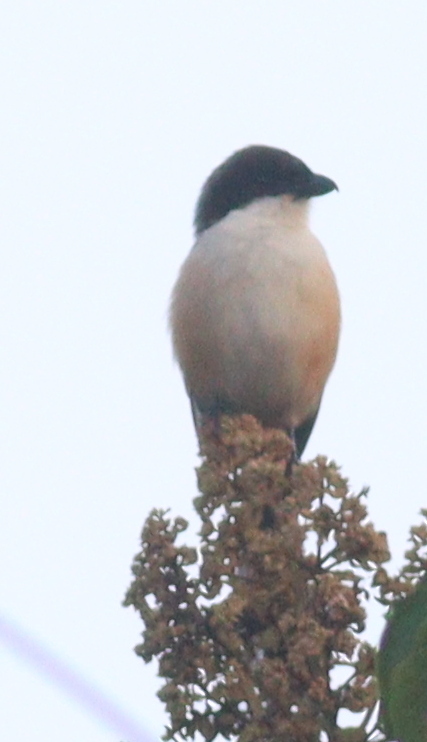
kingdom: Animalia
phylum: Chordata
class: Aves
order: Passeriformes
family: Laniidae
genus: Lanius
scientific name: Lanius schach
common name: Long-tailed shrike
